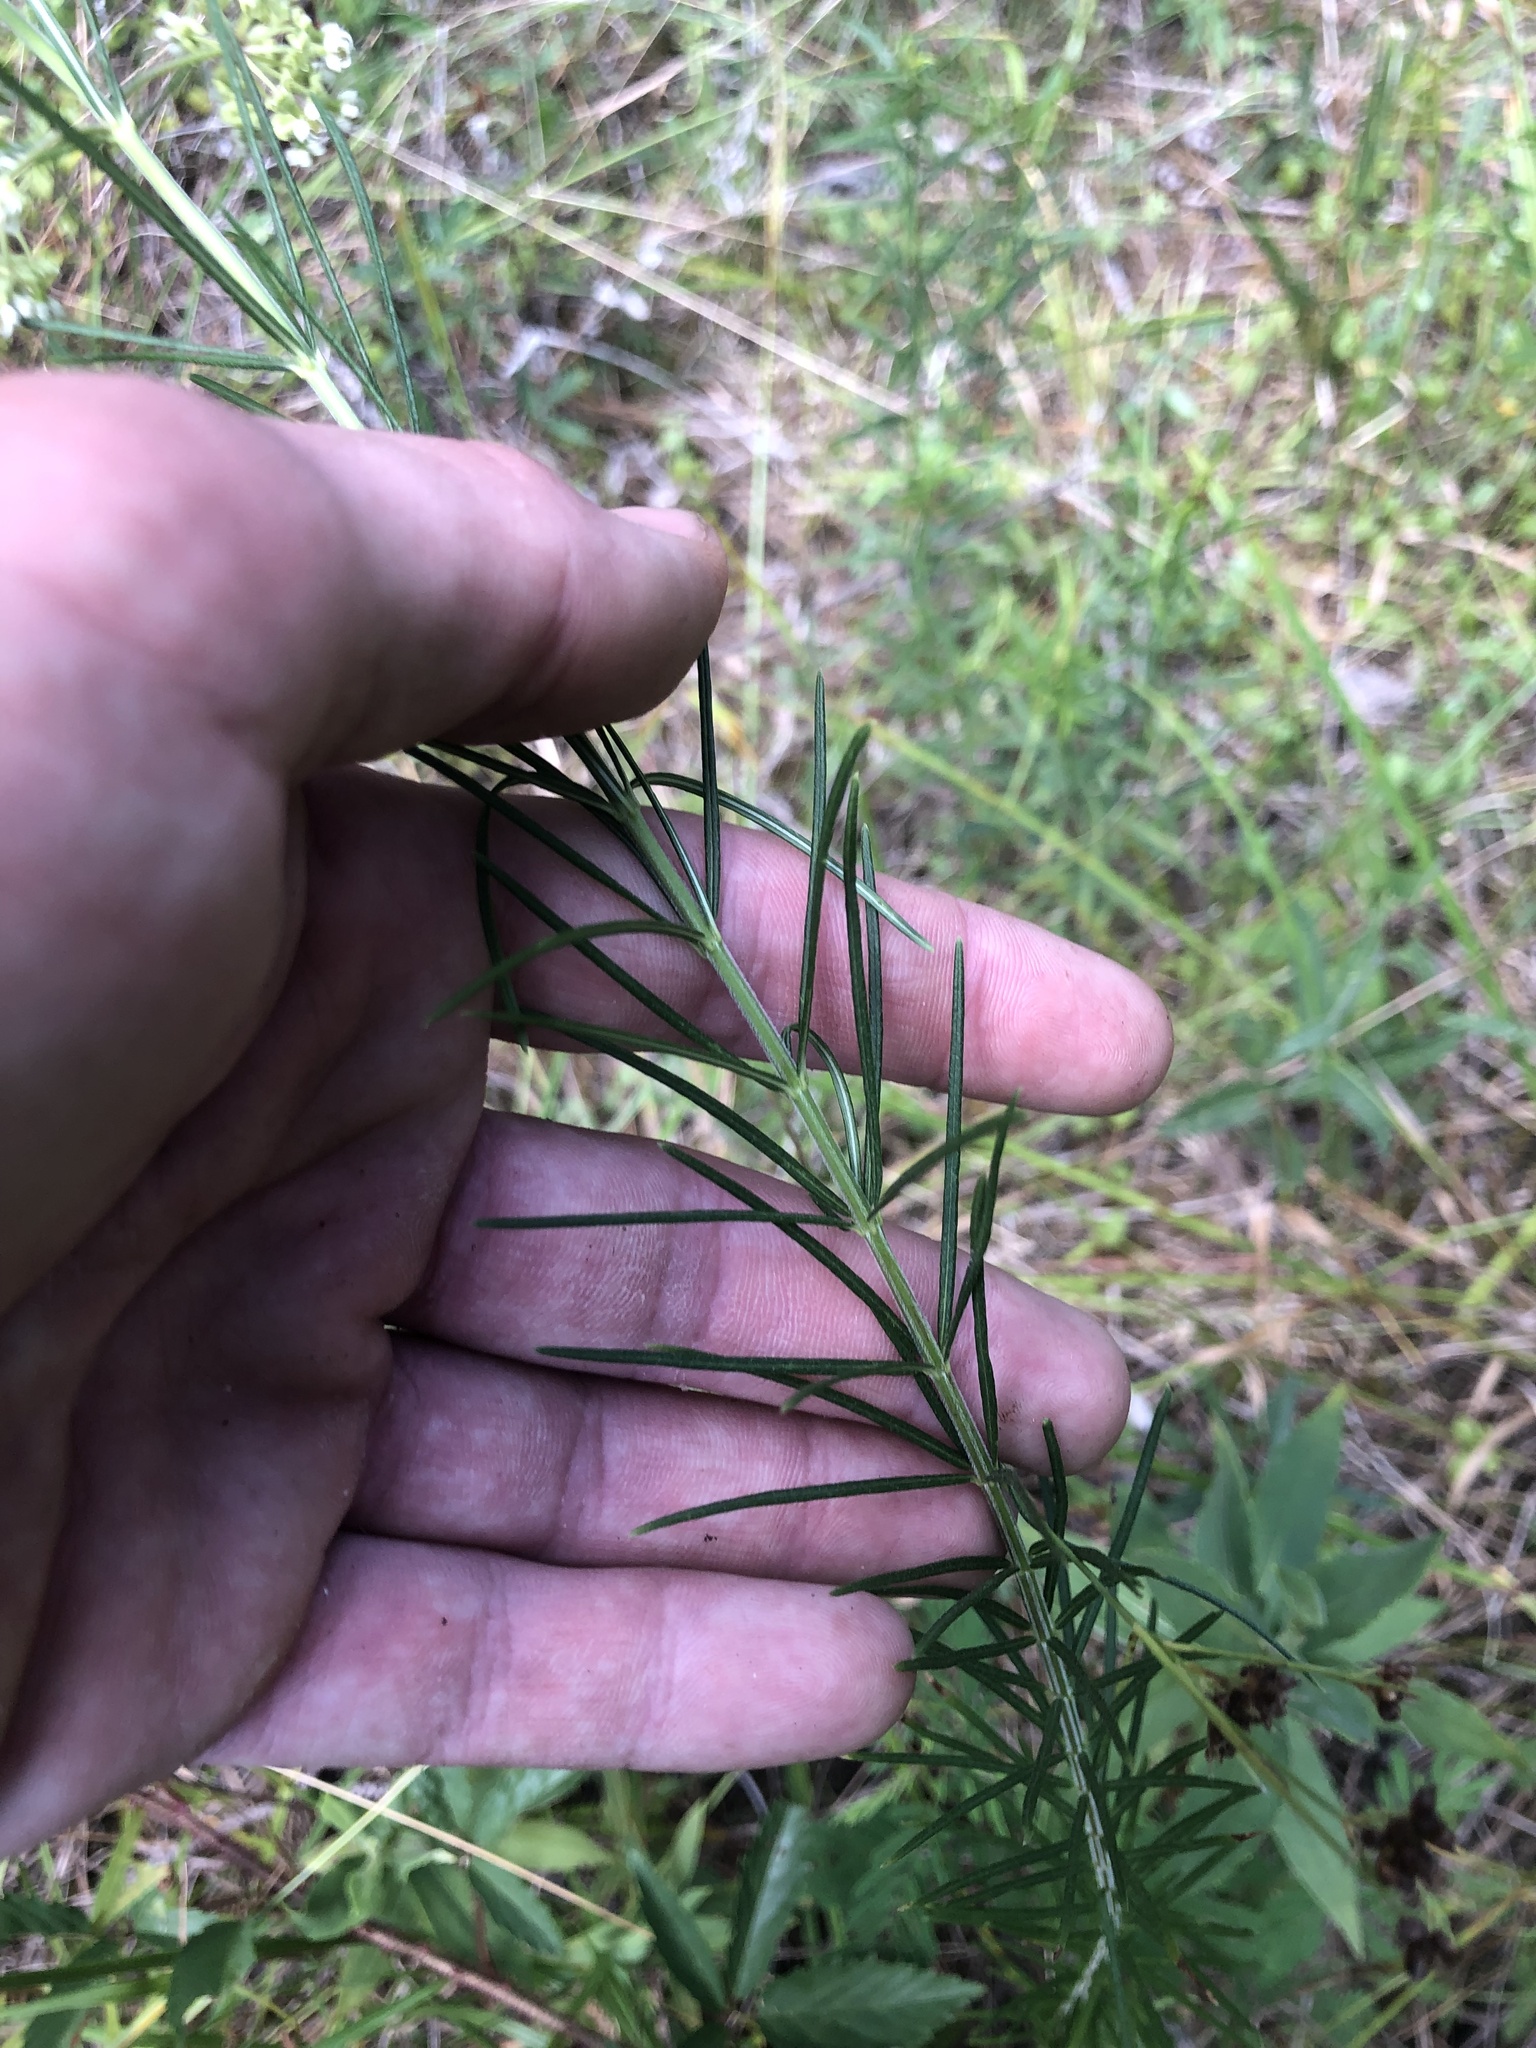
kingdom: Plantae
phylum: Tracheophyta
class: Magnoliopsida
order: Gentianales
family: Apocynaceae
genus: Asclepias
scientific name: Asclepias verticillata
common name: Eastern whorled milkweed
